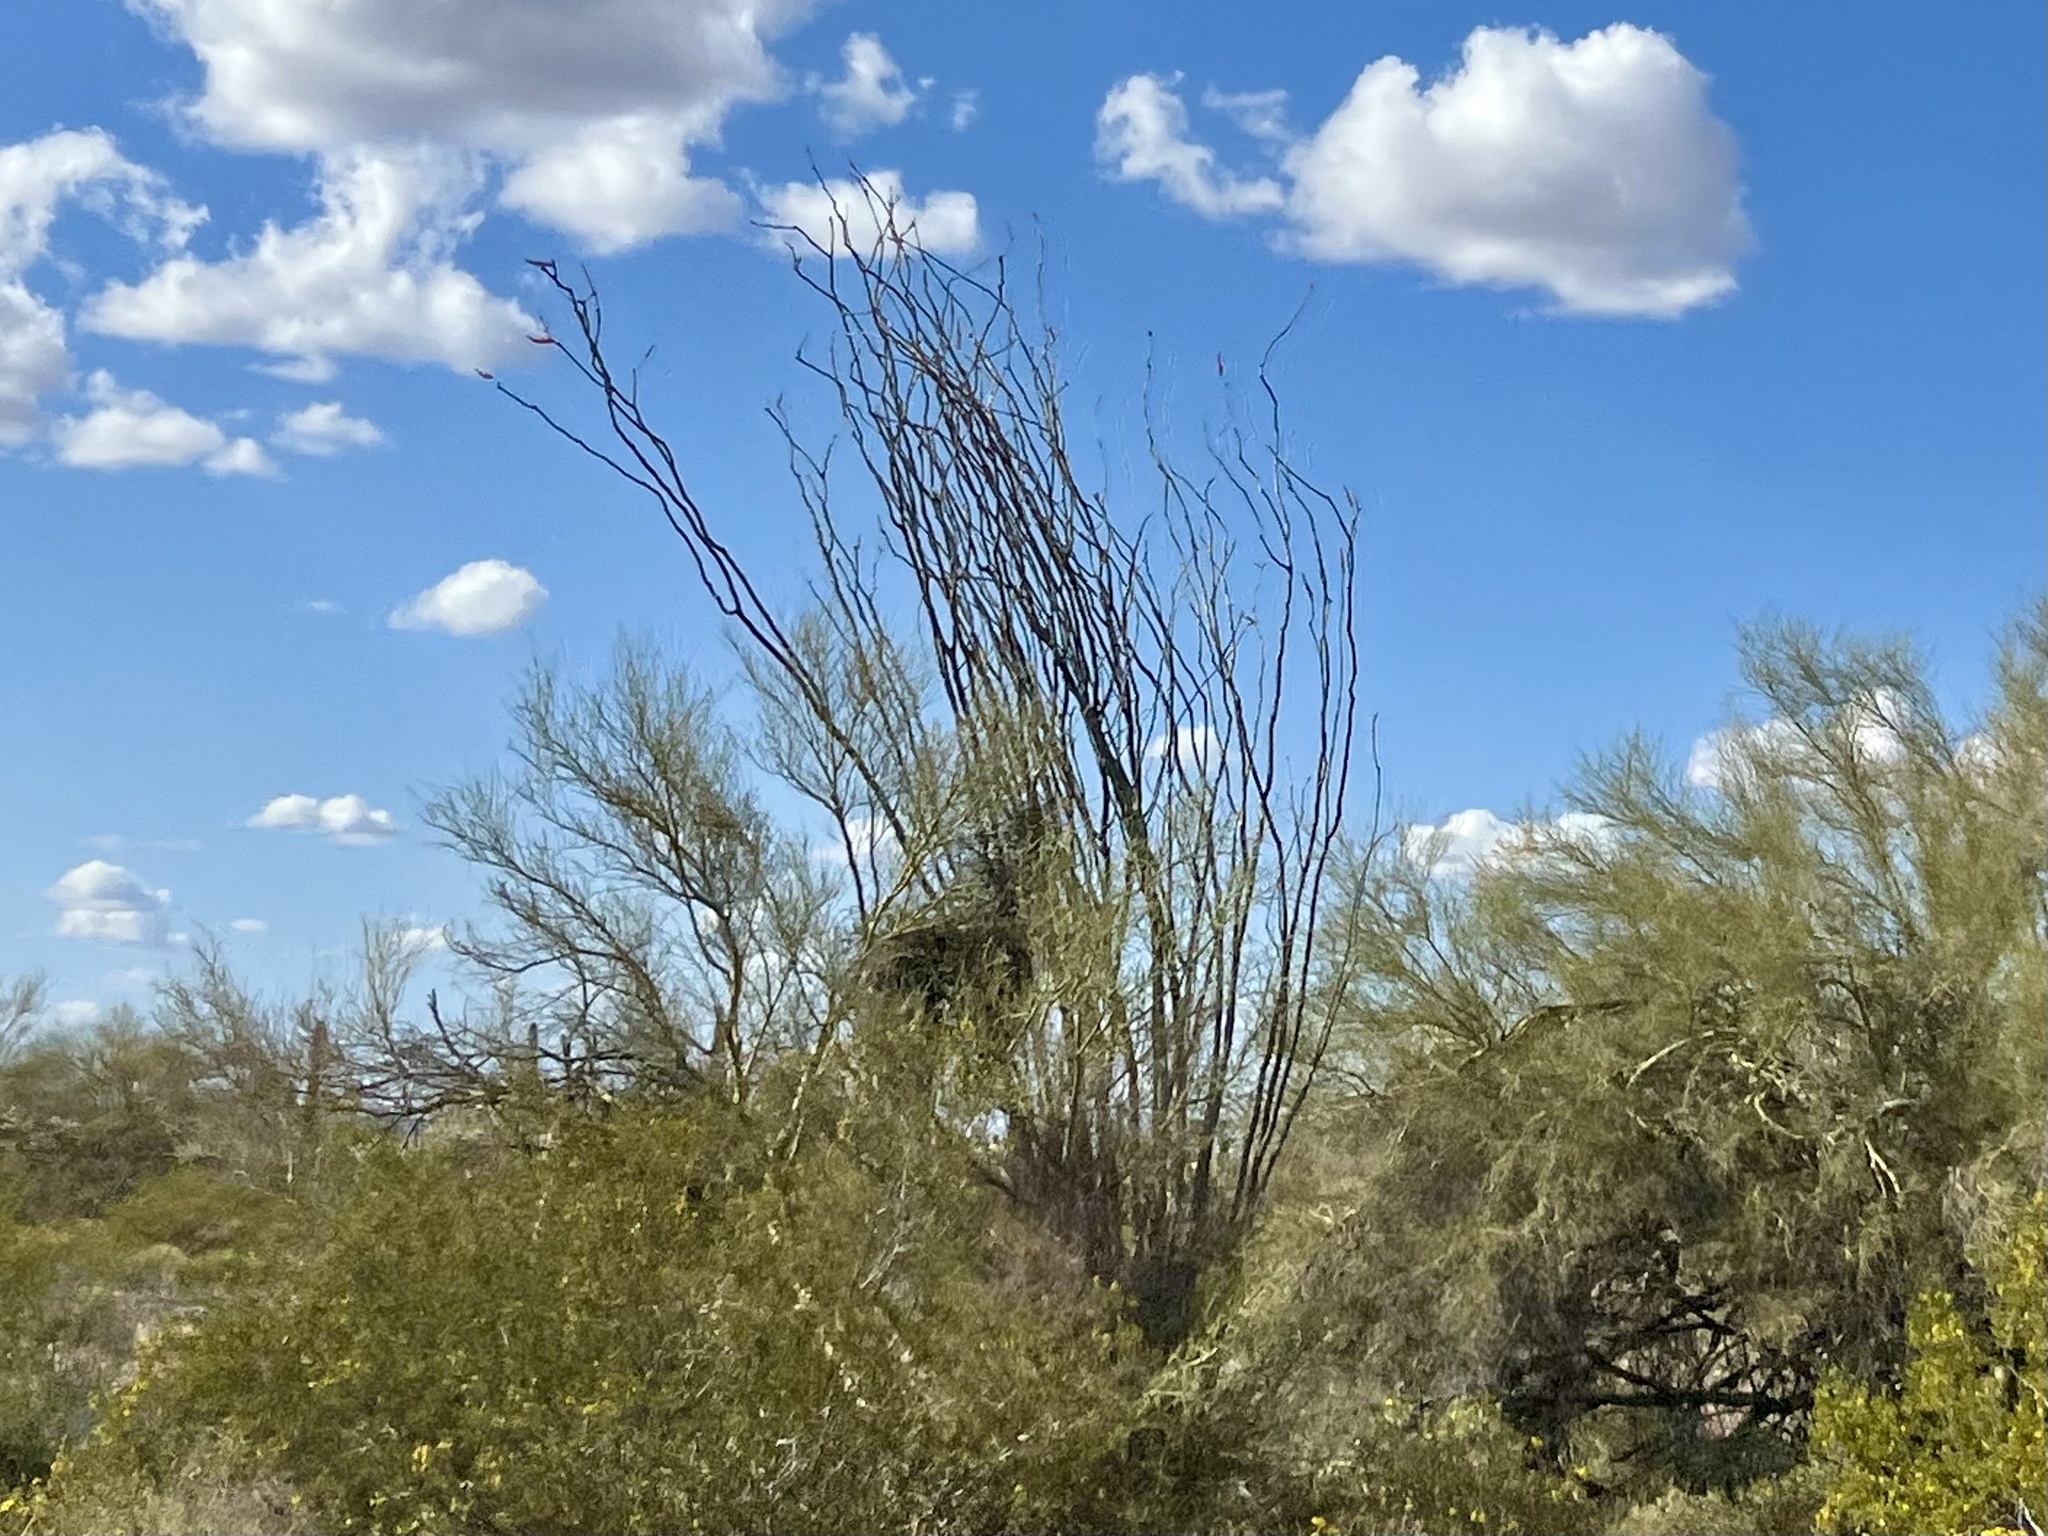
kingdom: Plantae
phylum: Tracheophyta
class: Magnoliopsida
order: Ericales
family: Fouquieriaceae
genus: Fouquieria
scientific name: Fouquieria splendens
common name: Vine-cactus
